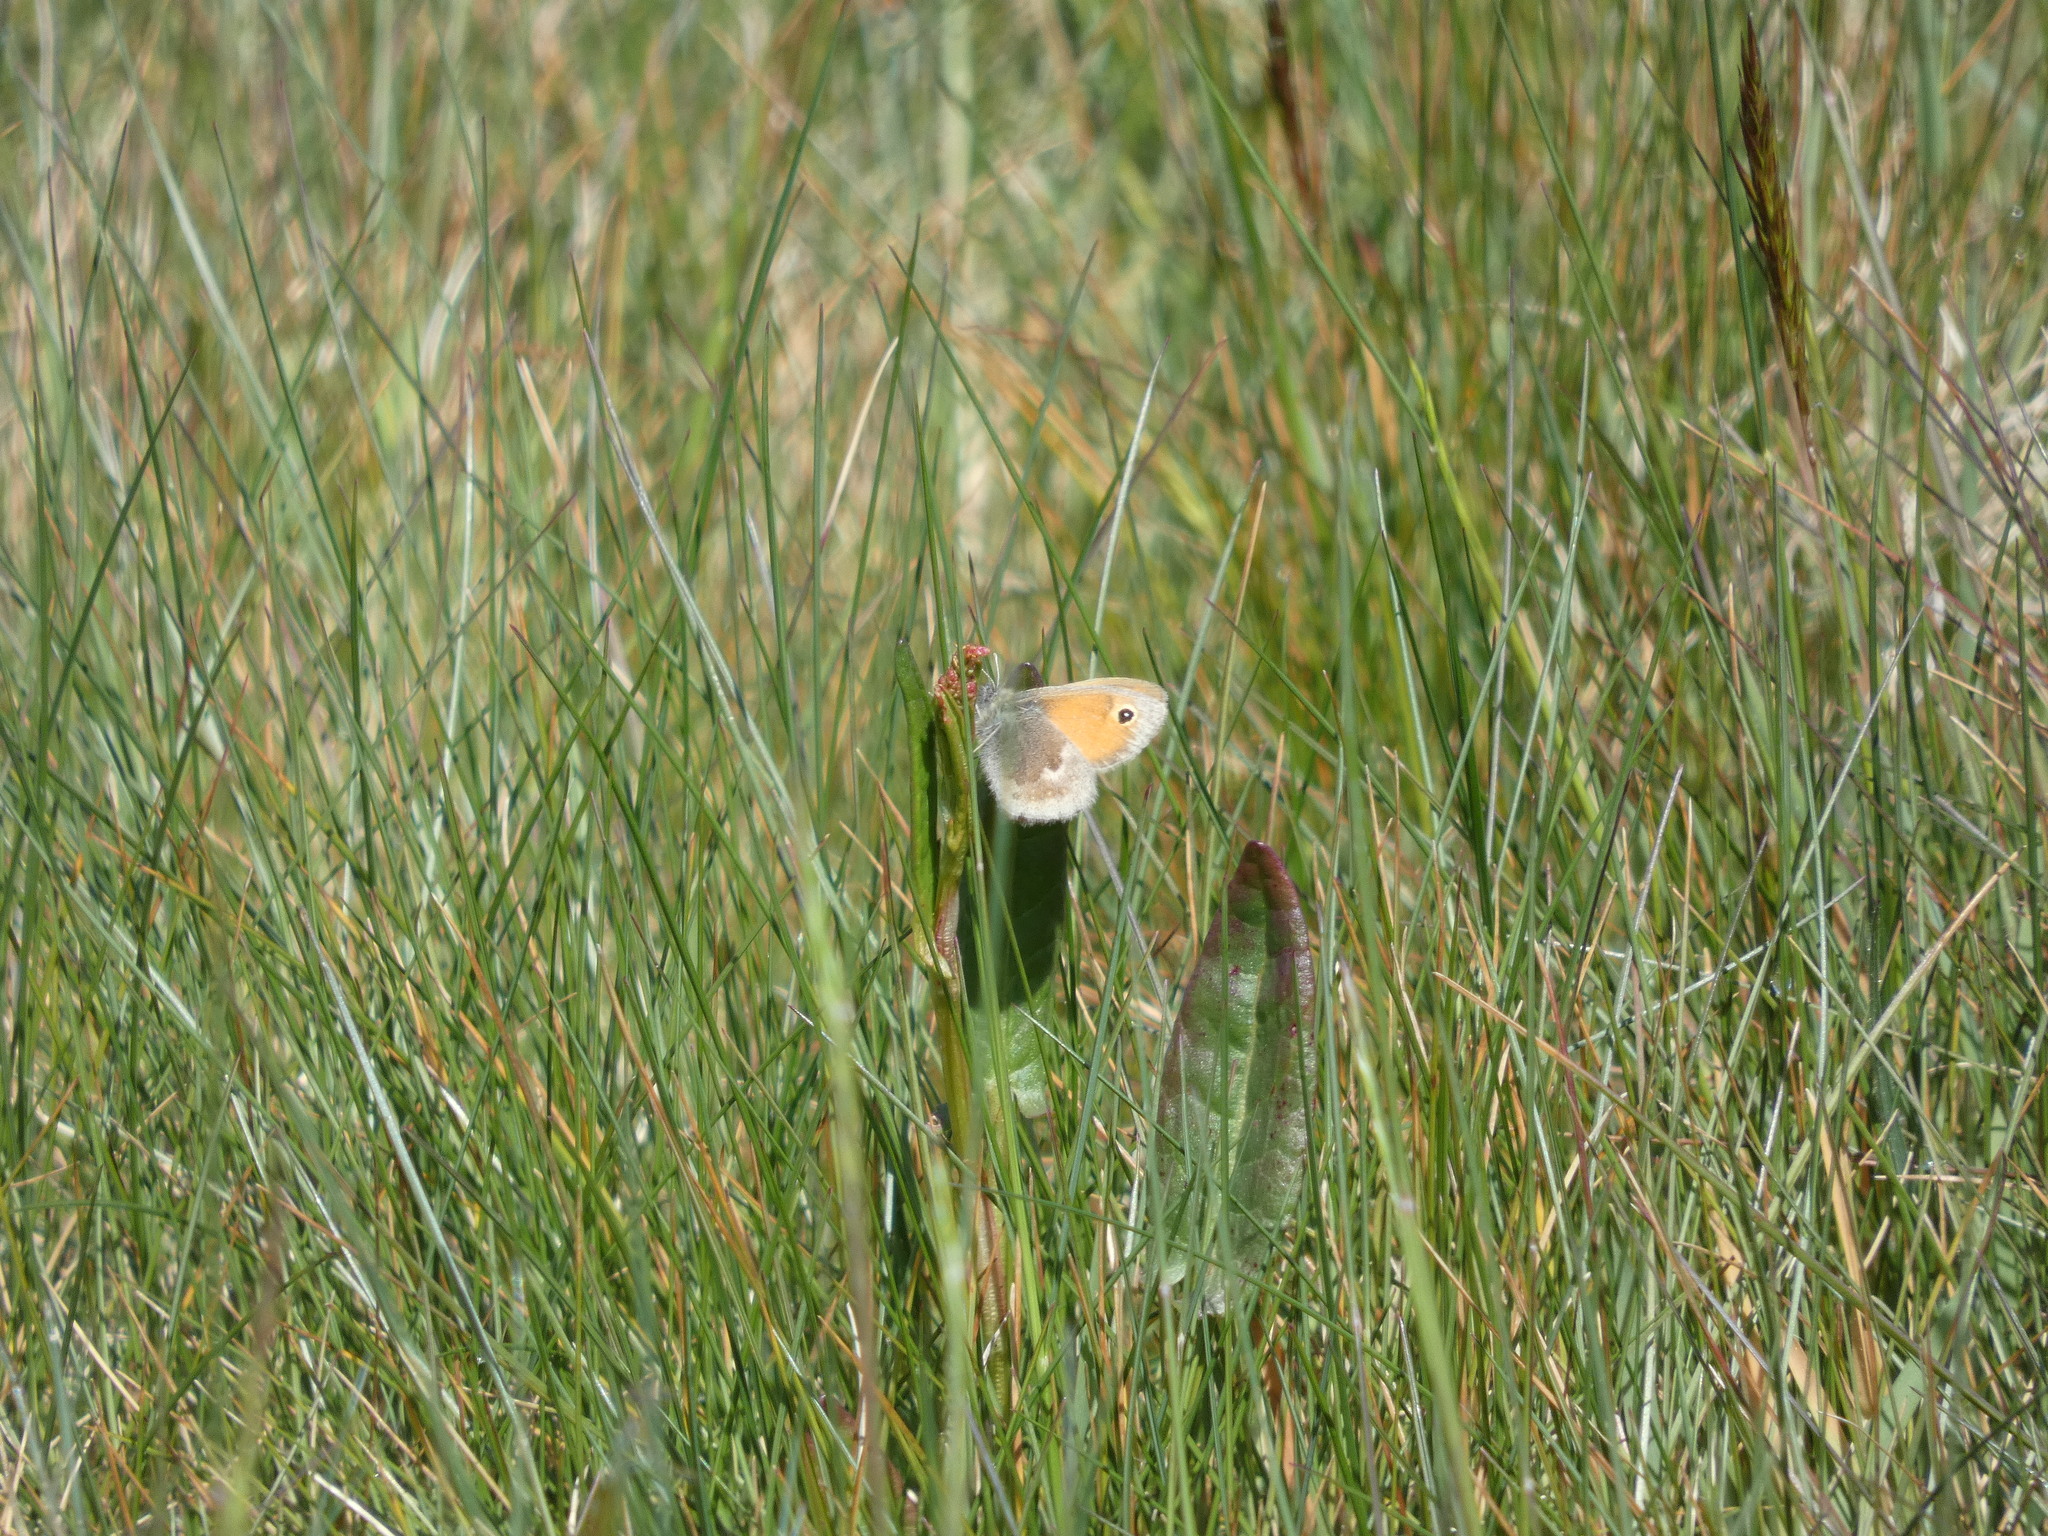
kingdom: Animalia
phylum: Arthropoda
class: Insecta
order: Lepidoptera
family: Nymphalidae
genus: Coenonympha
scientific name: Coenonympha pamphilus
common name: Small heath
